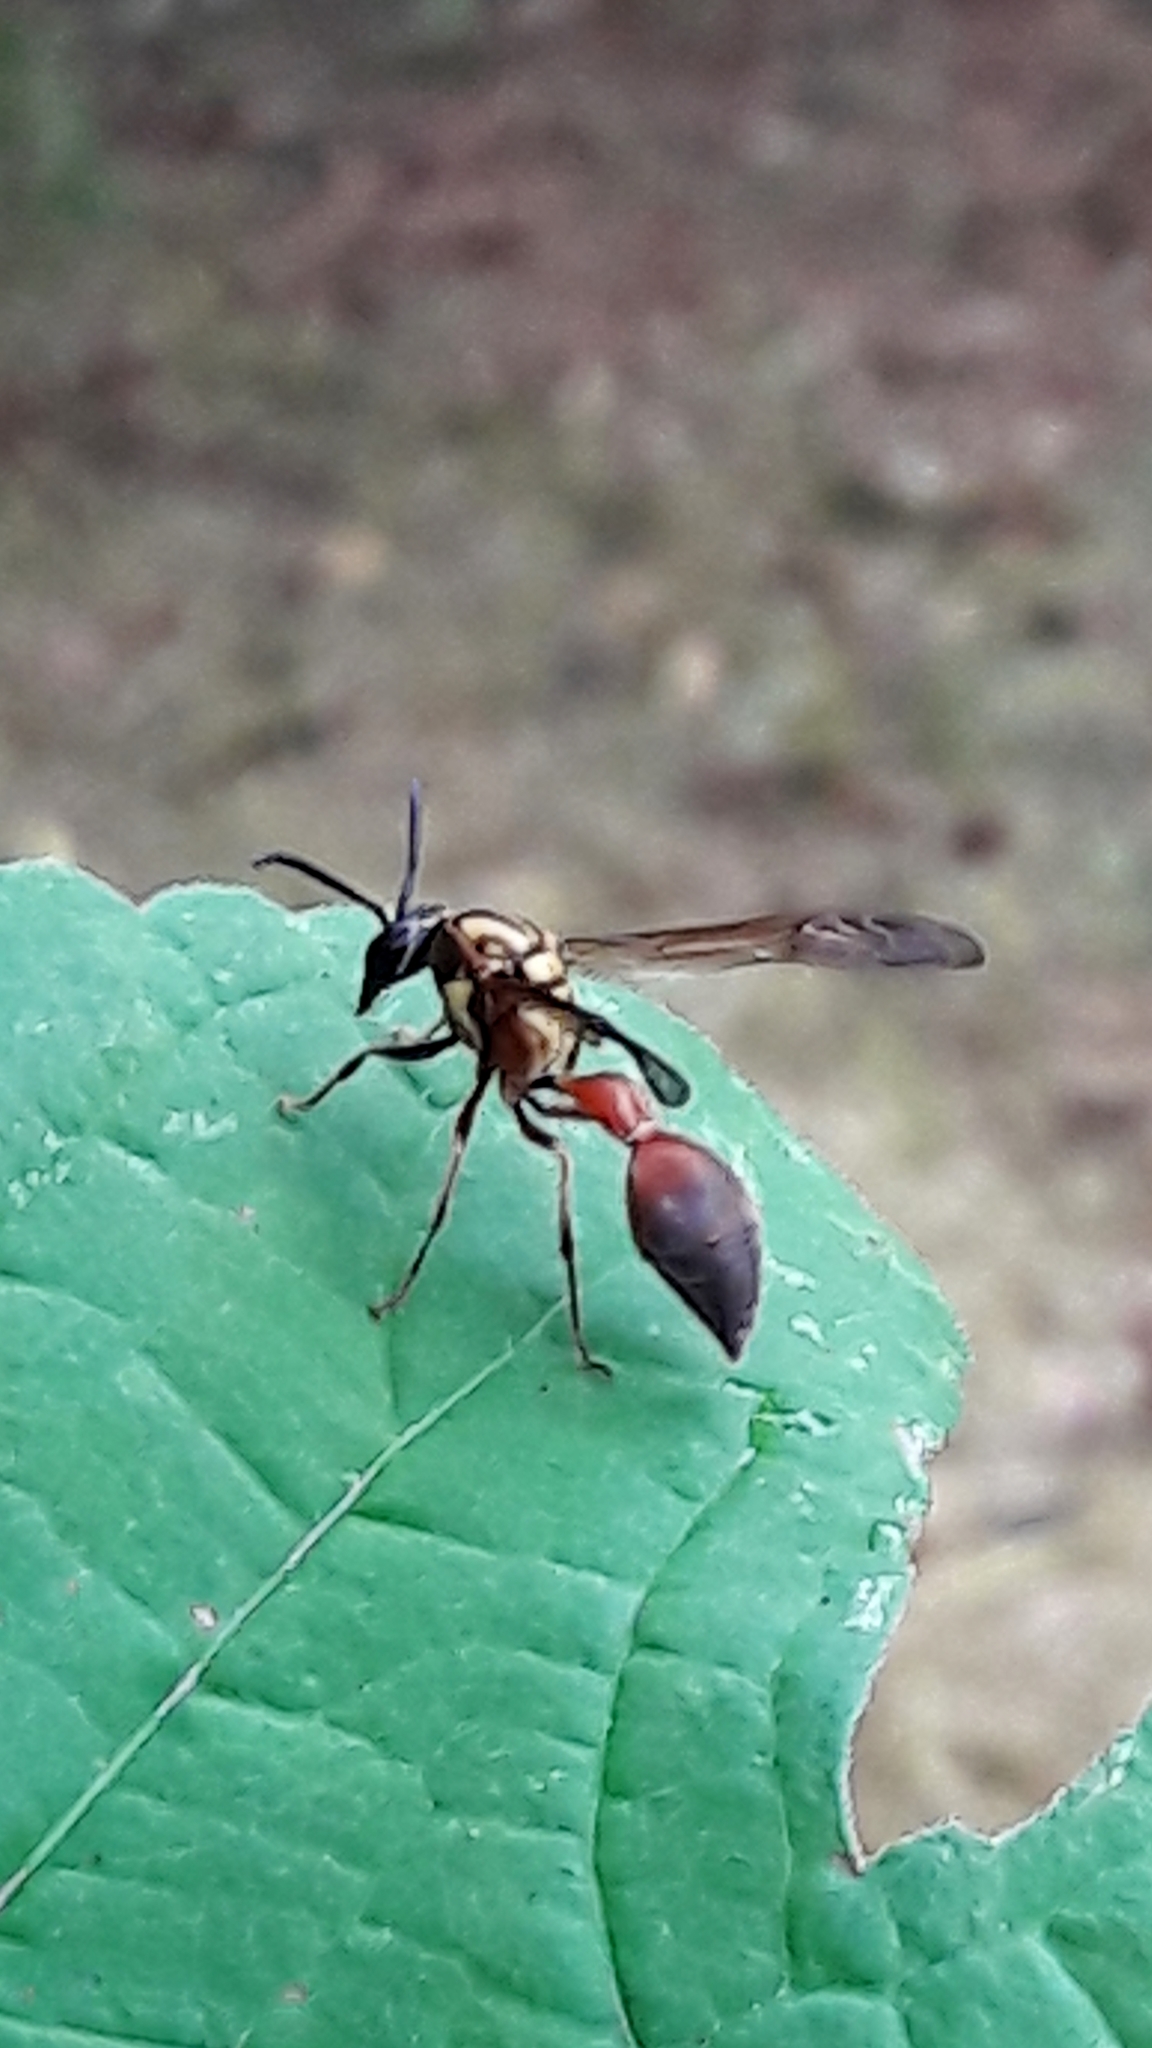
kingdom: Animalia
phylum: Arthropoda
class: Insecta
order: Hymenoptera
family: Eumenidae
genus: Pachymenes
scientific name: Pachymenes ghilianii
